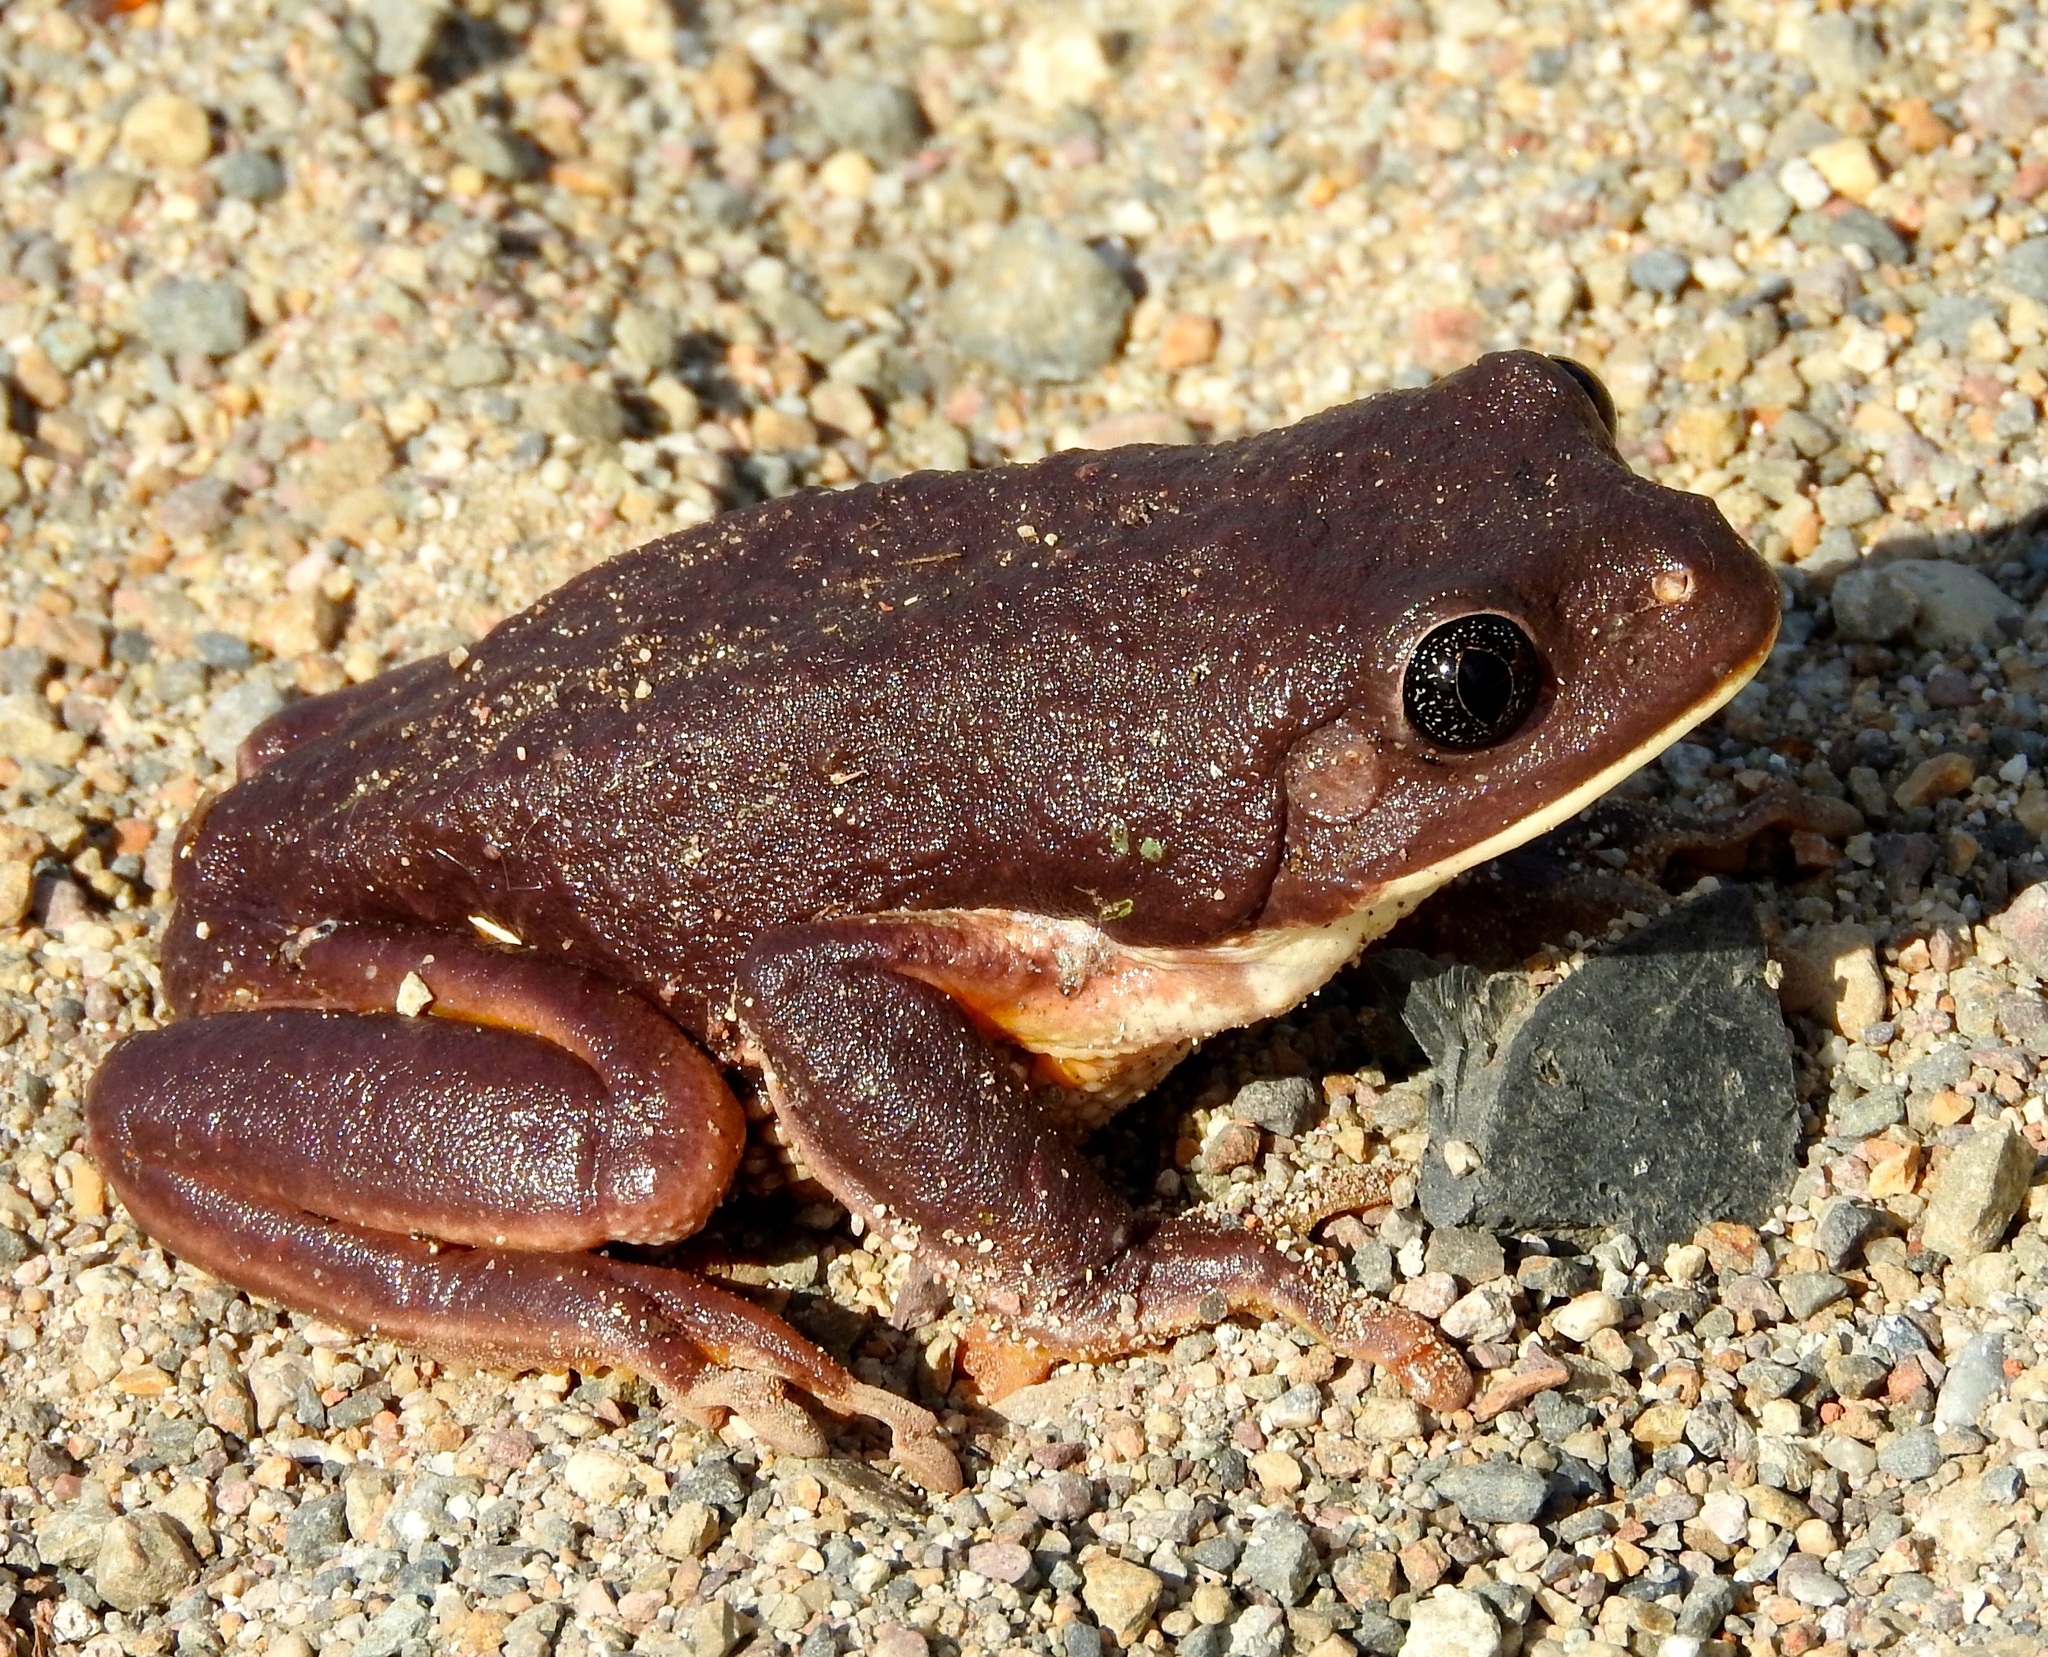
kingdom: Animalia
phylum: Chordata
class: Amphibia
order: Anura
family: Phyllomedusidae
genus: Agalychnis
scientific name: Agalychnis dacnicolor
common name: Mexican giant tree frog
